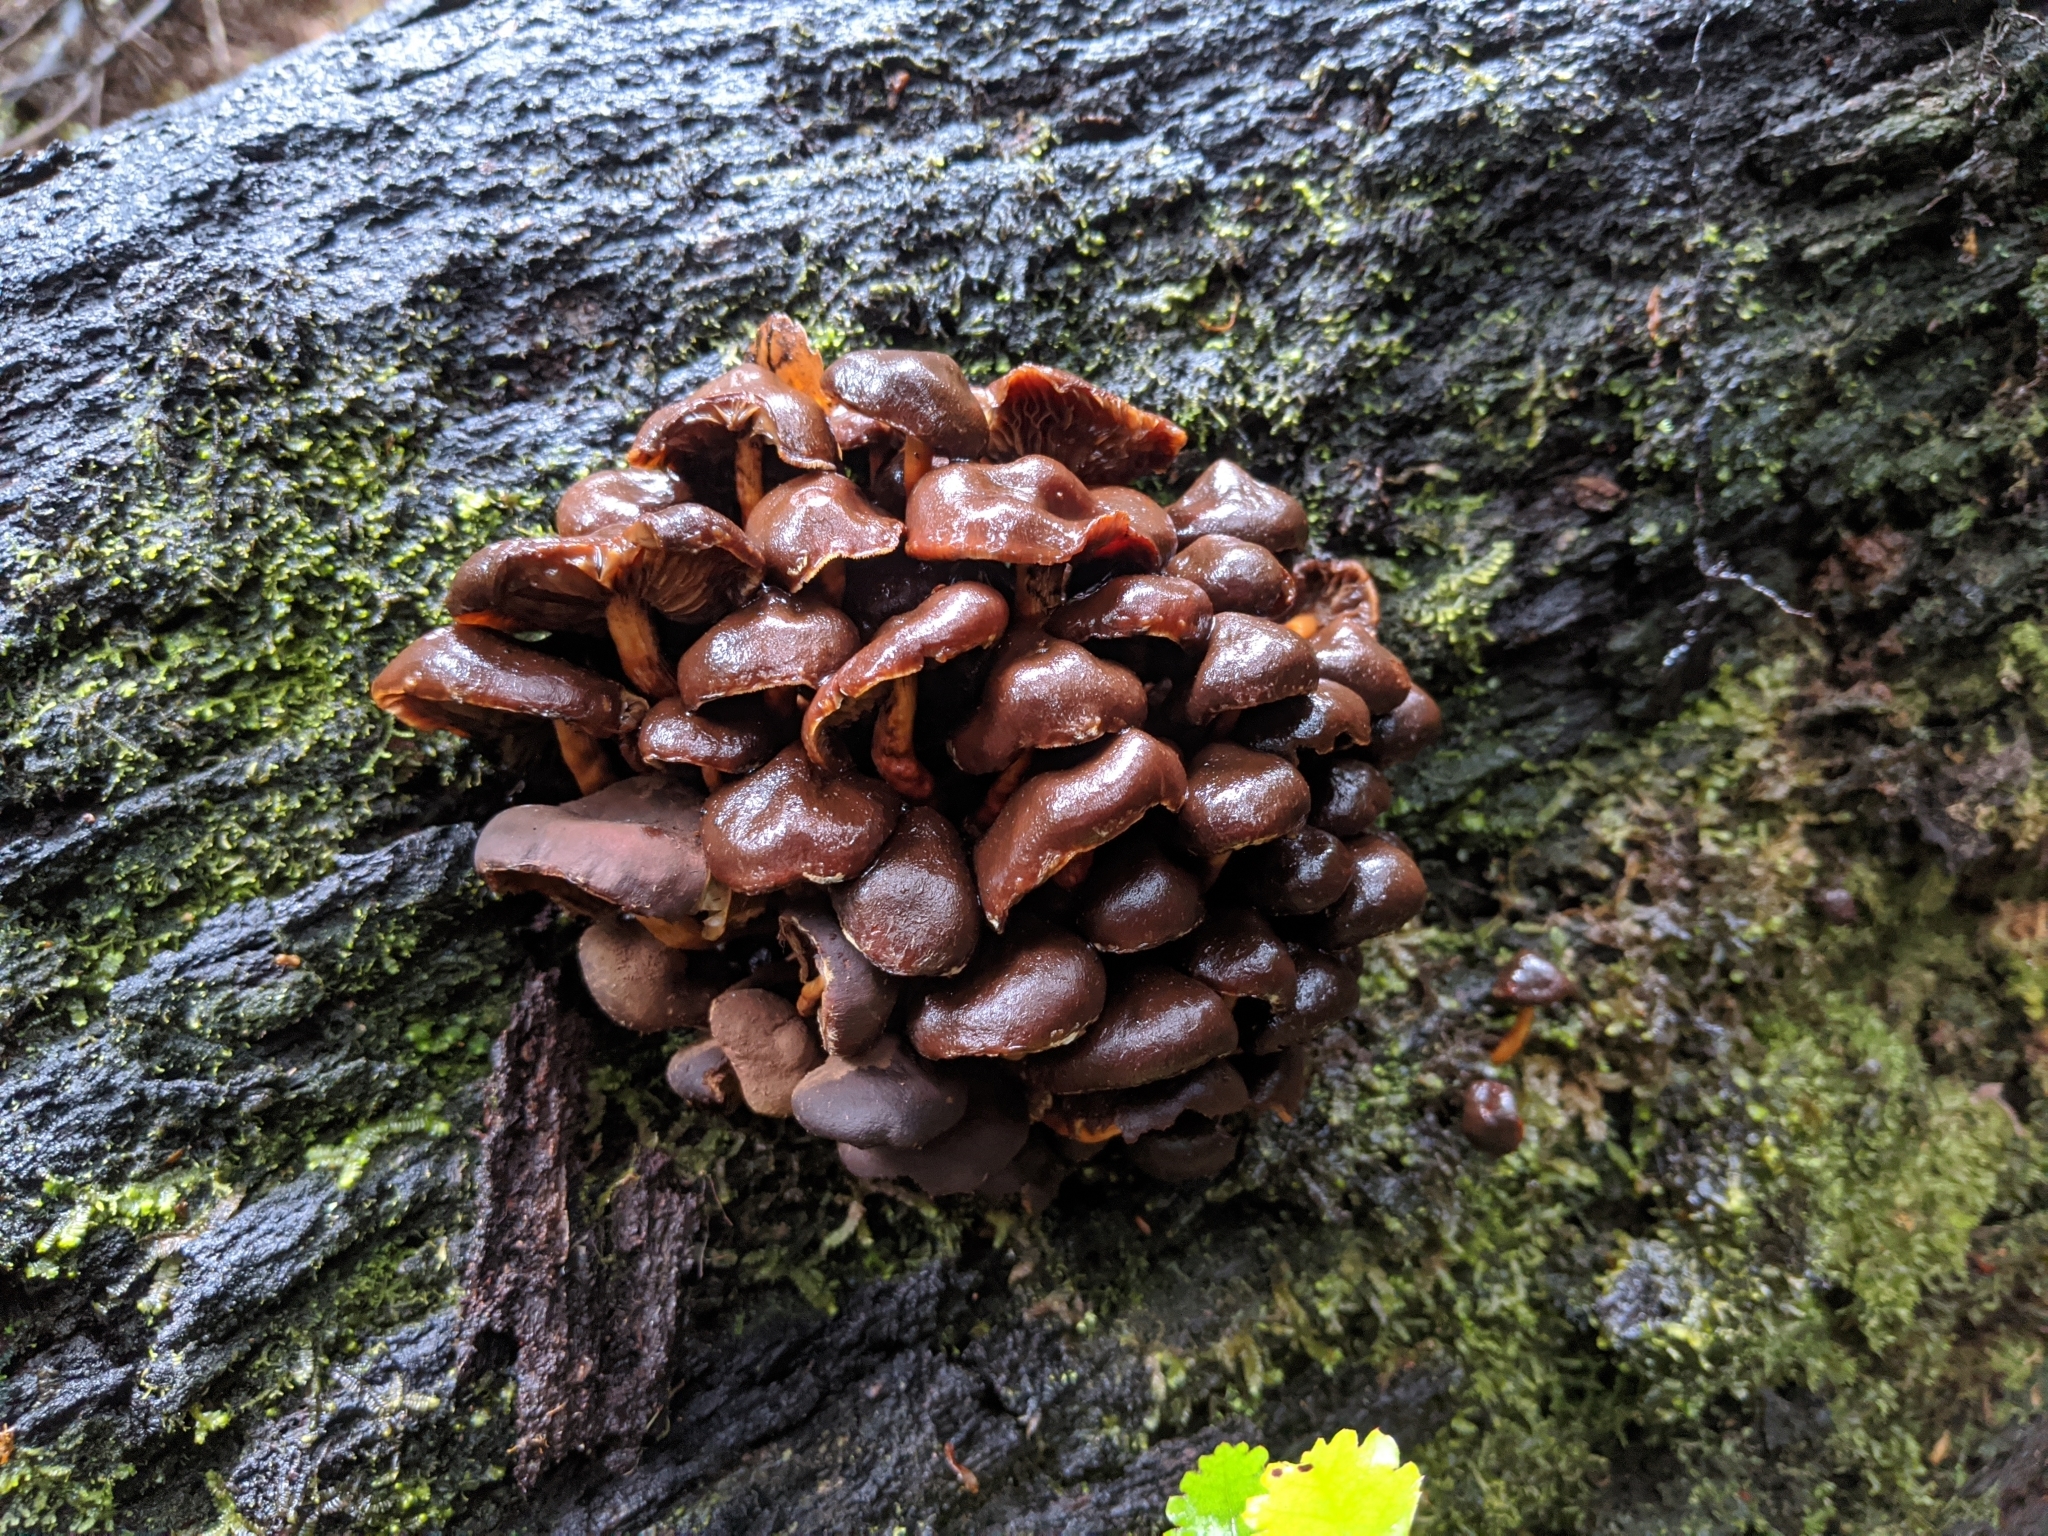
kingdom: Fungi
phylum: Basidiomycota
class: Agaricomycetes
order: Agaricales
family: Strophariaceae
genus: Hypholoma
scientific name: Hypholoma brunneum
